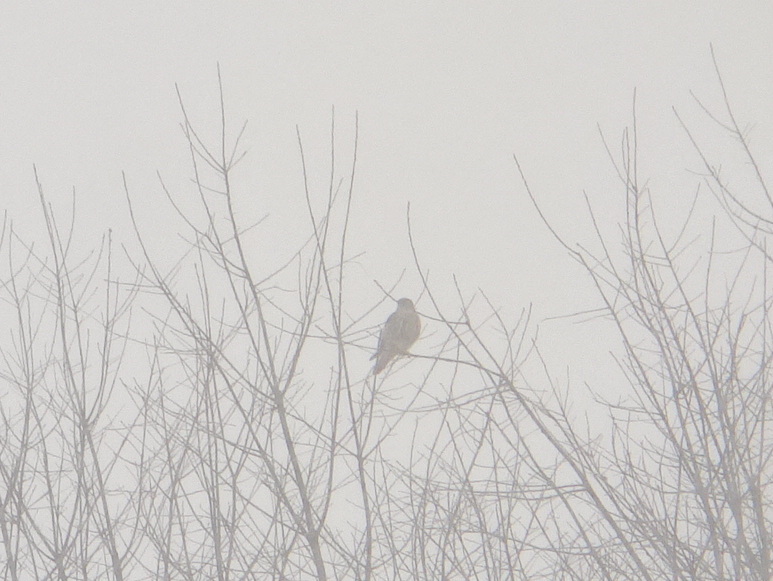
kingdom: Animalia
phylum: Chordata
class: Aves
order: Falconiformes
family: Falconidae
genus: Falco
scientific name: Falco columbarius
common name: Merlin
